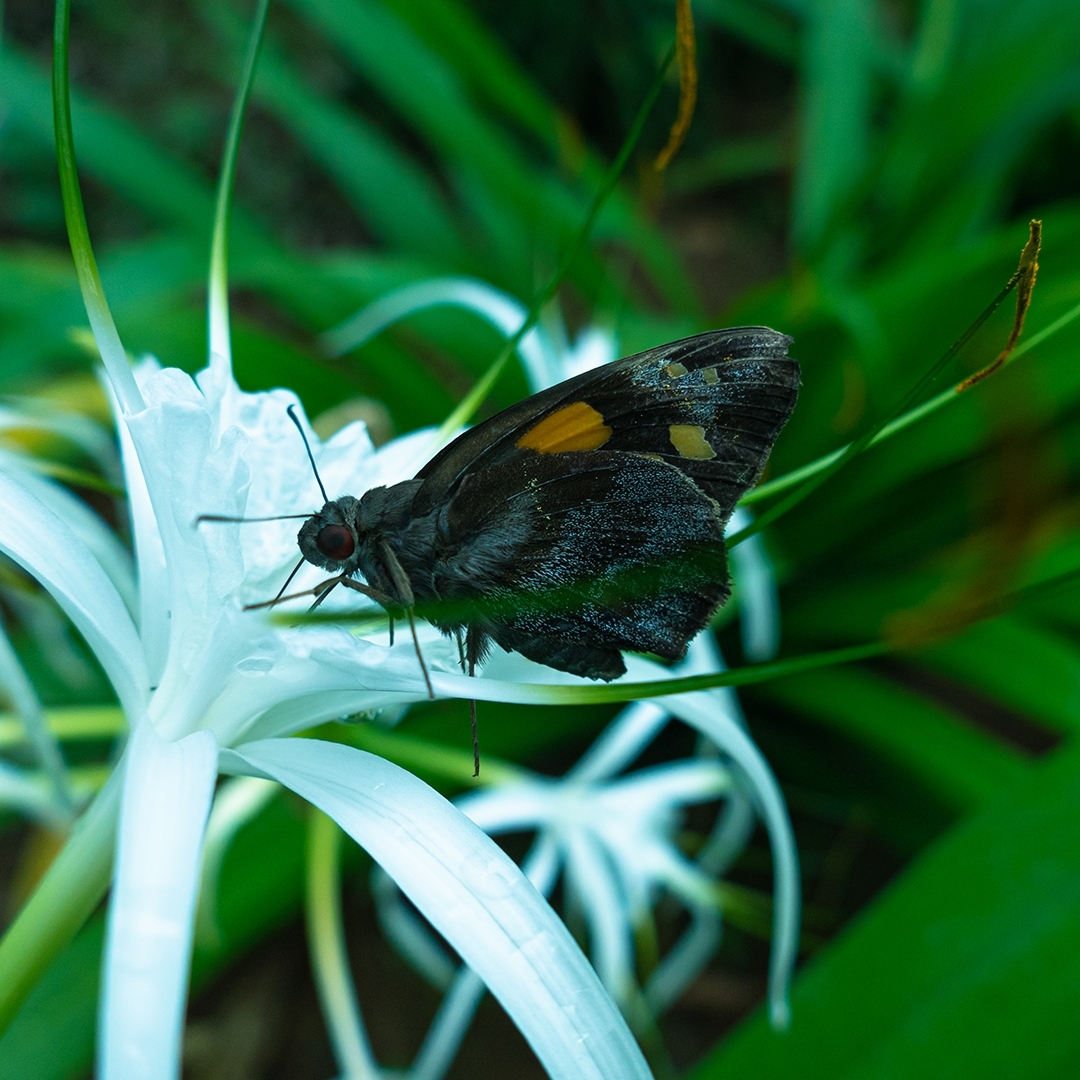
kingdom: Animalia
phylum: Arthropoda
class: Insecta
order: Lepidoptera
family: Hesperiidae
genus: Gangara
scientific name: Gangara thyrsis
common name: Giant redeye
